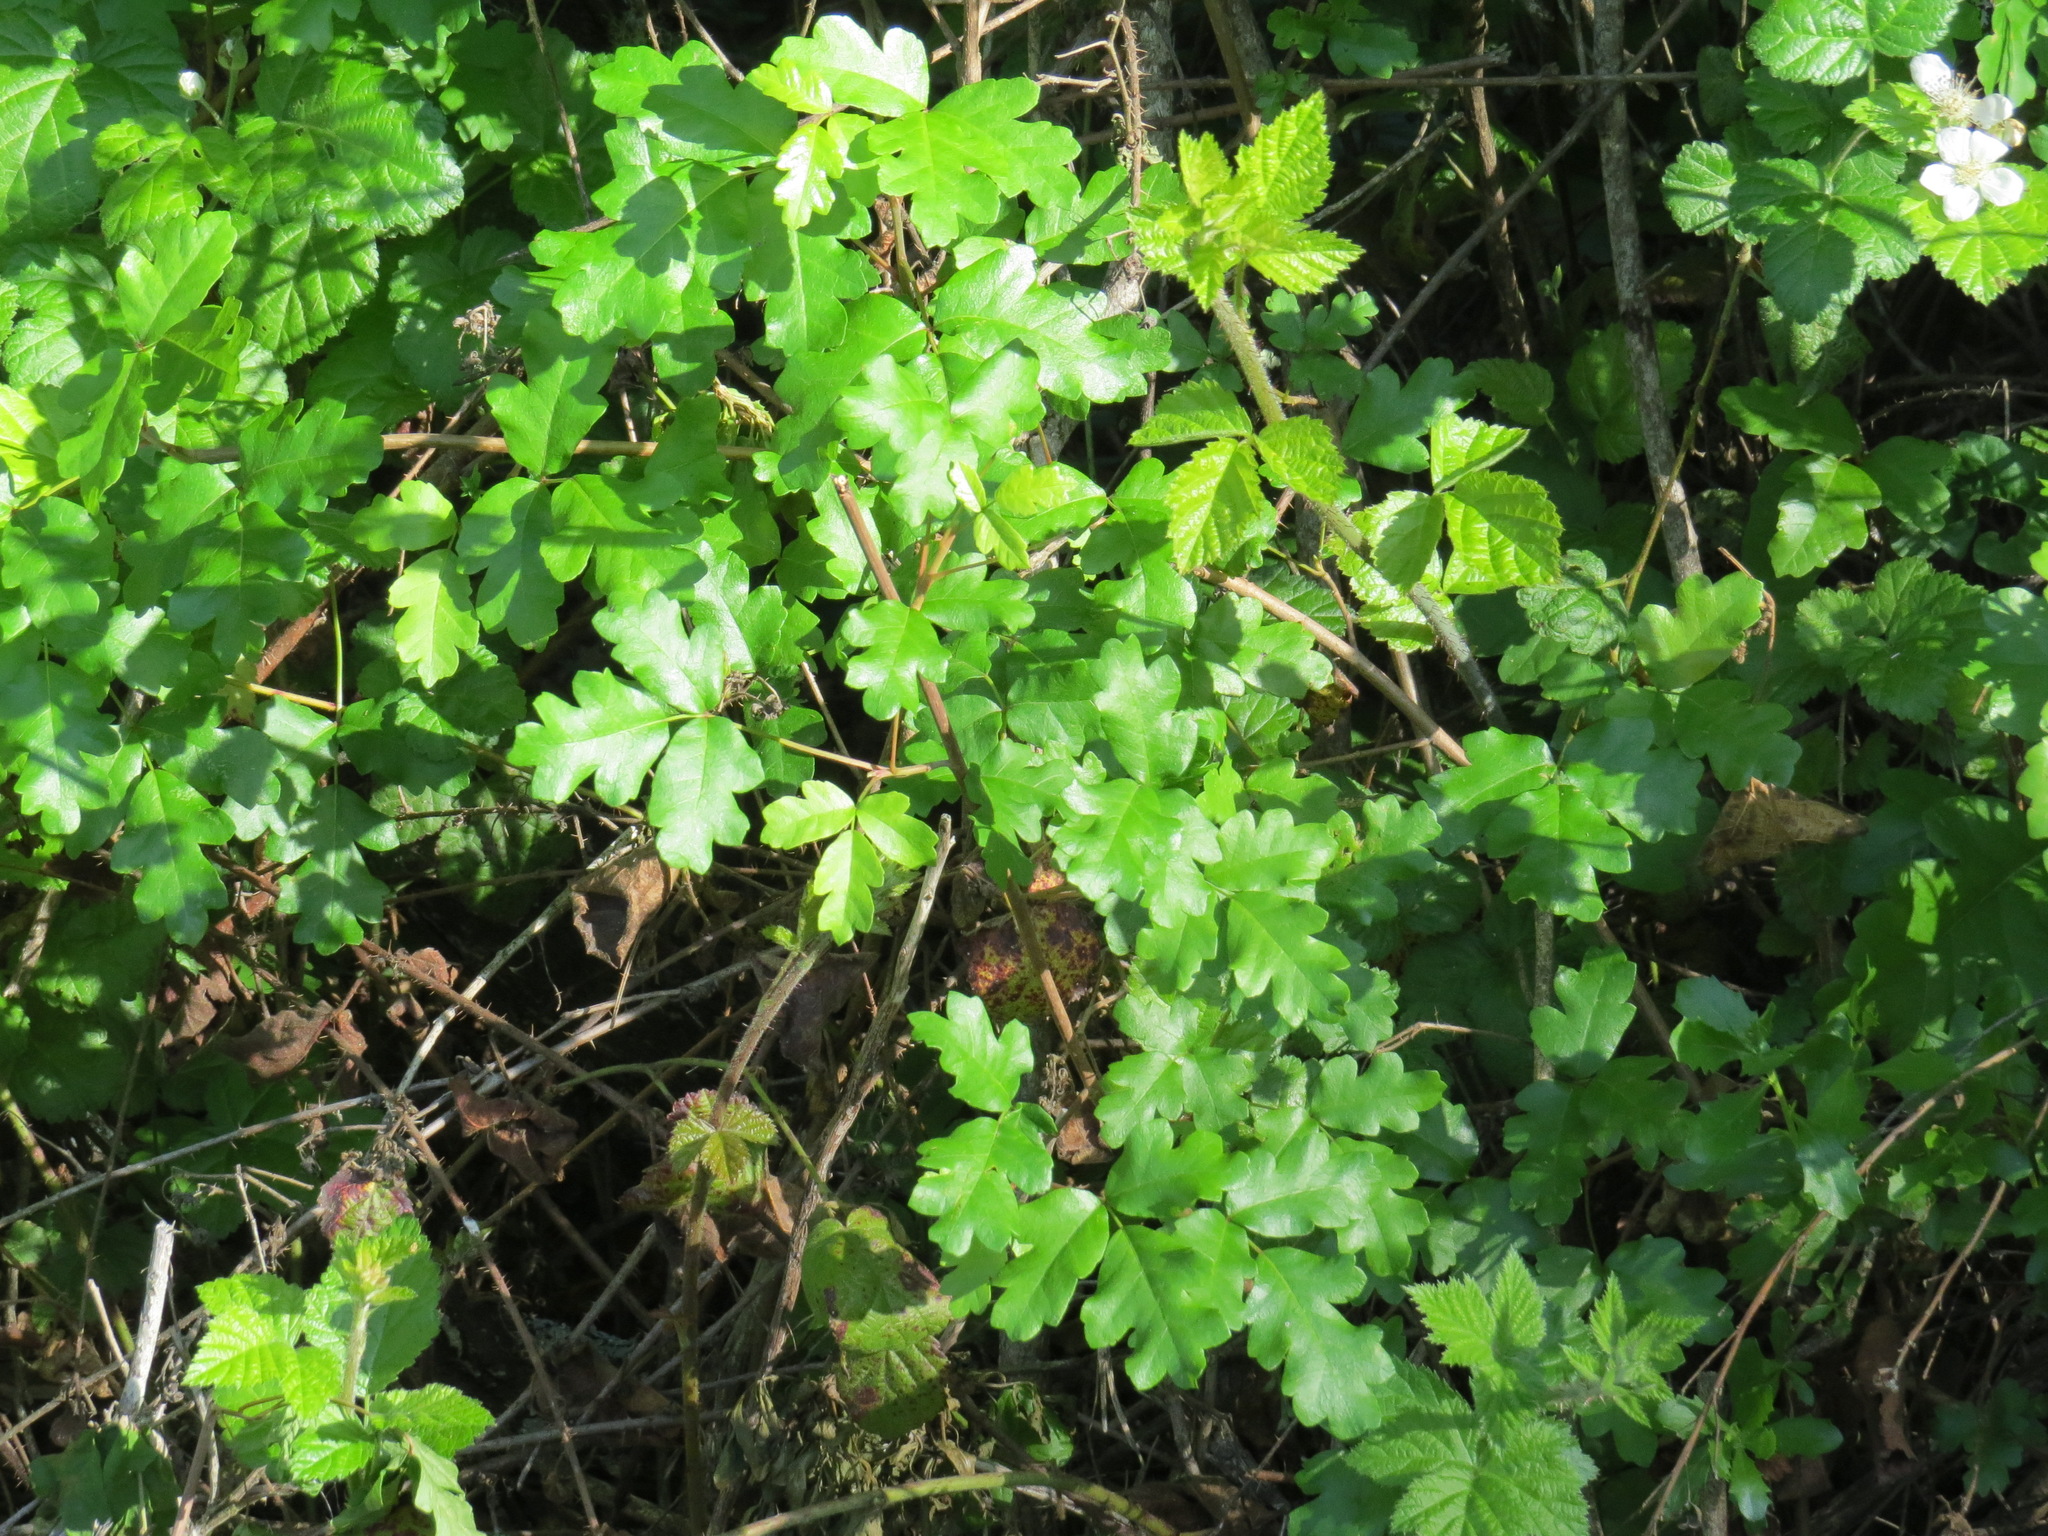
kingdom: Plantae
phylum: Tracheophyta
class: Magnoliopsida
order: Sapindales
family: Anacardiaceae
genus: Toxicodendron
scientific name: Toxicodendron diversilobum
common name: Pacific poison-oak
